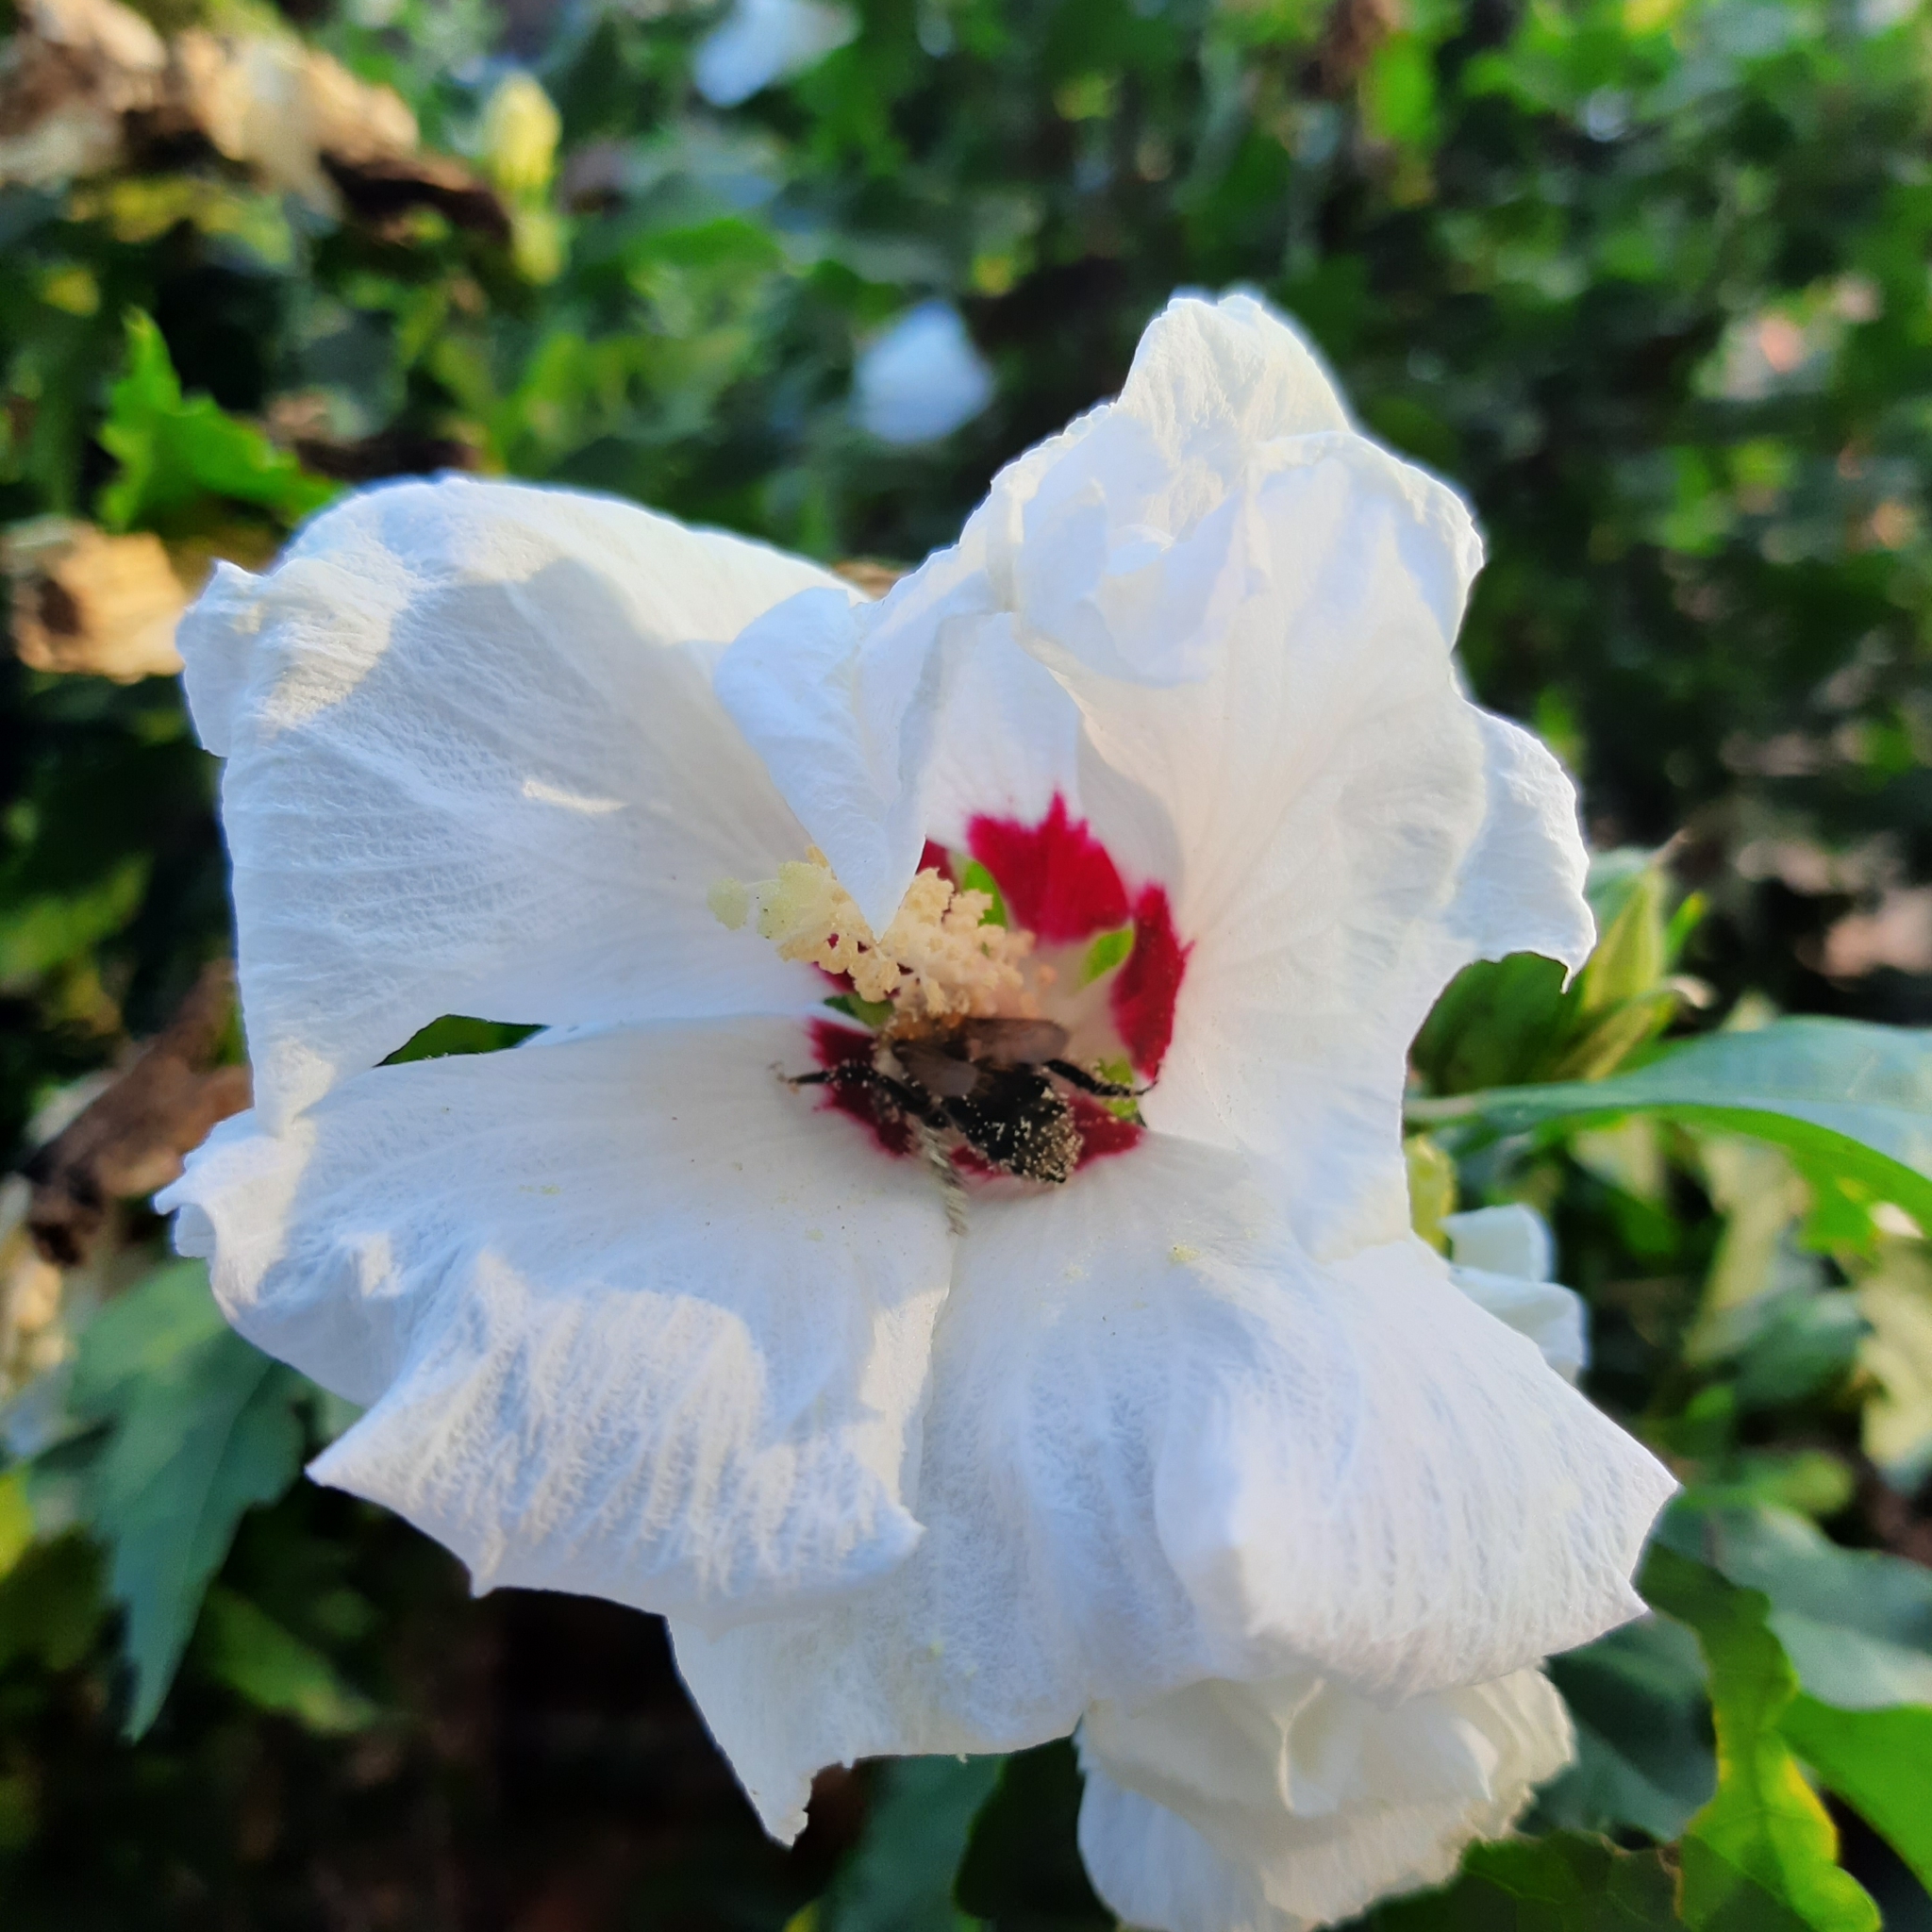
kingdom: Animalia
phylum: Arthropoda
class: Insecta
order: Hymenoptera
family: Apidae
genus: Bombus
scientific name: Bombus pascuorum
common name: Common carder bee
